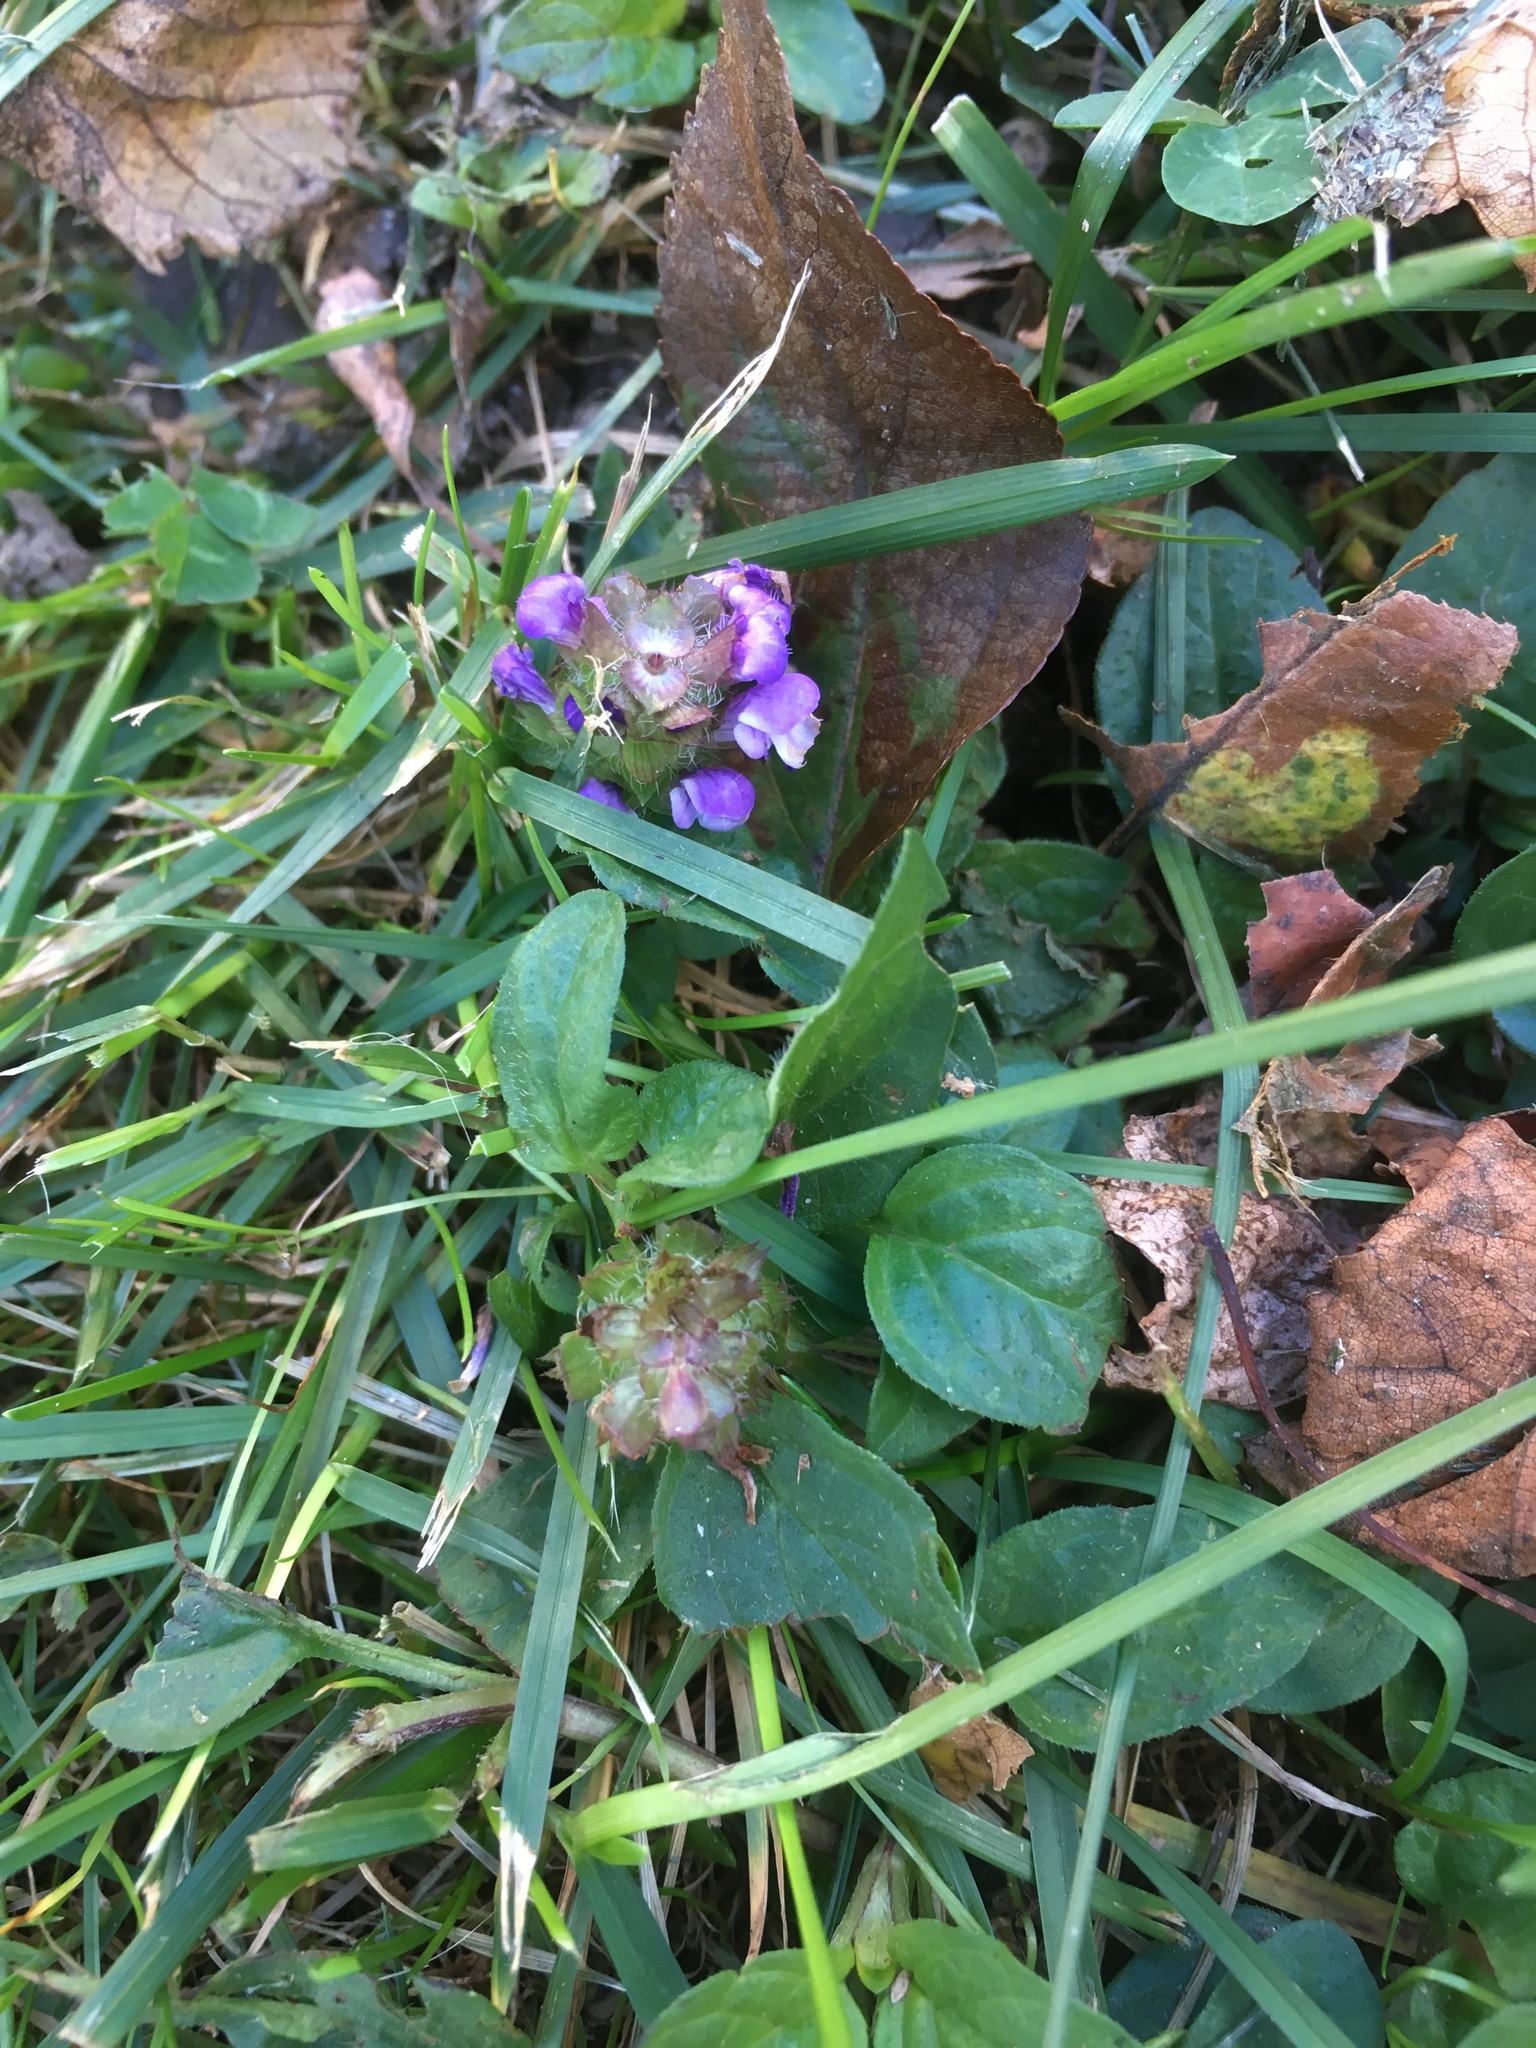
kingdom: Plantae
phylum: Tracheophyta
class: Magnoliopsida
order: Lamiales
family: Lamiaceae
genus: Prunella
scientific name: Prunella vulgaris
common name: Heal-all
